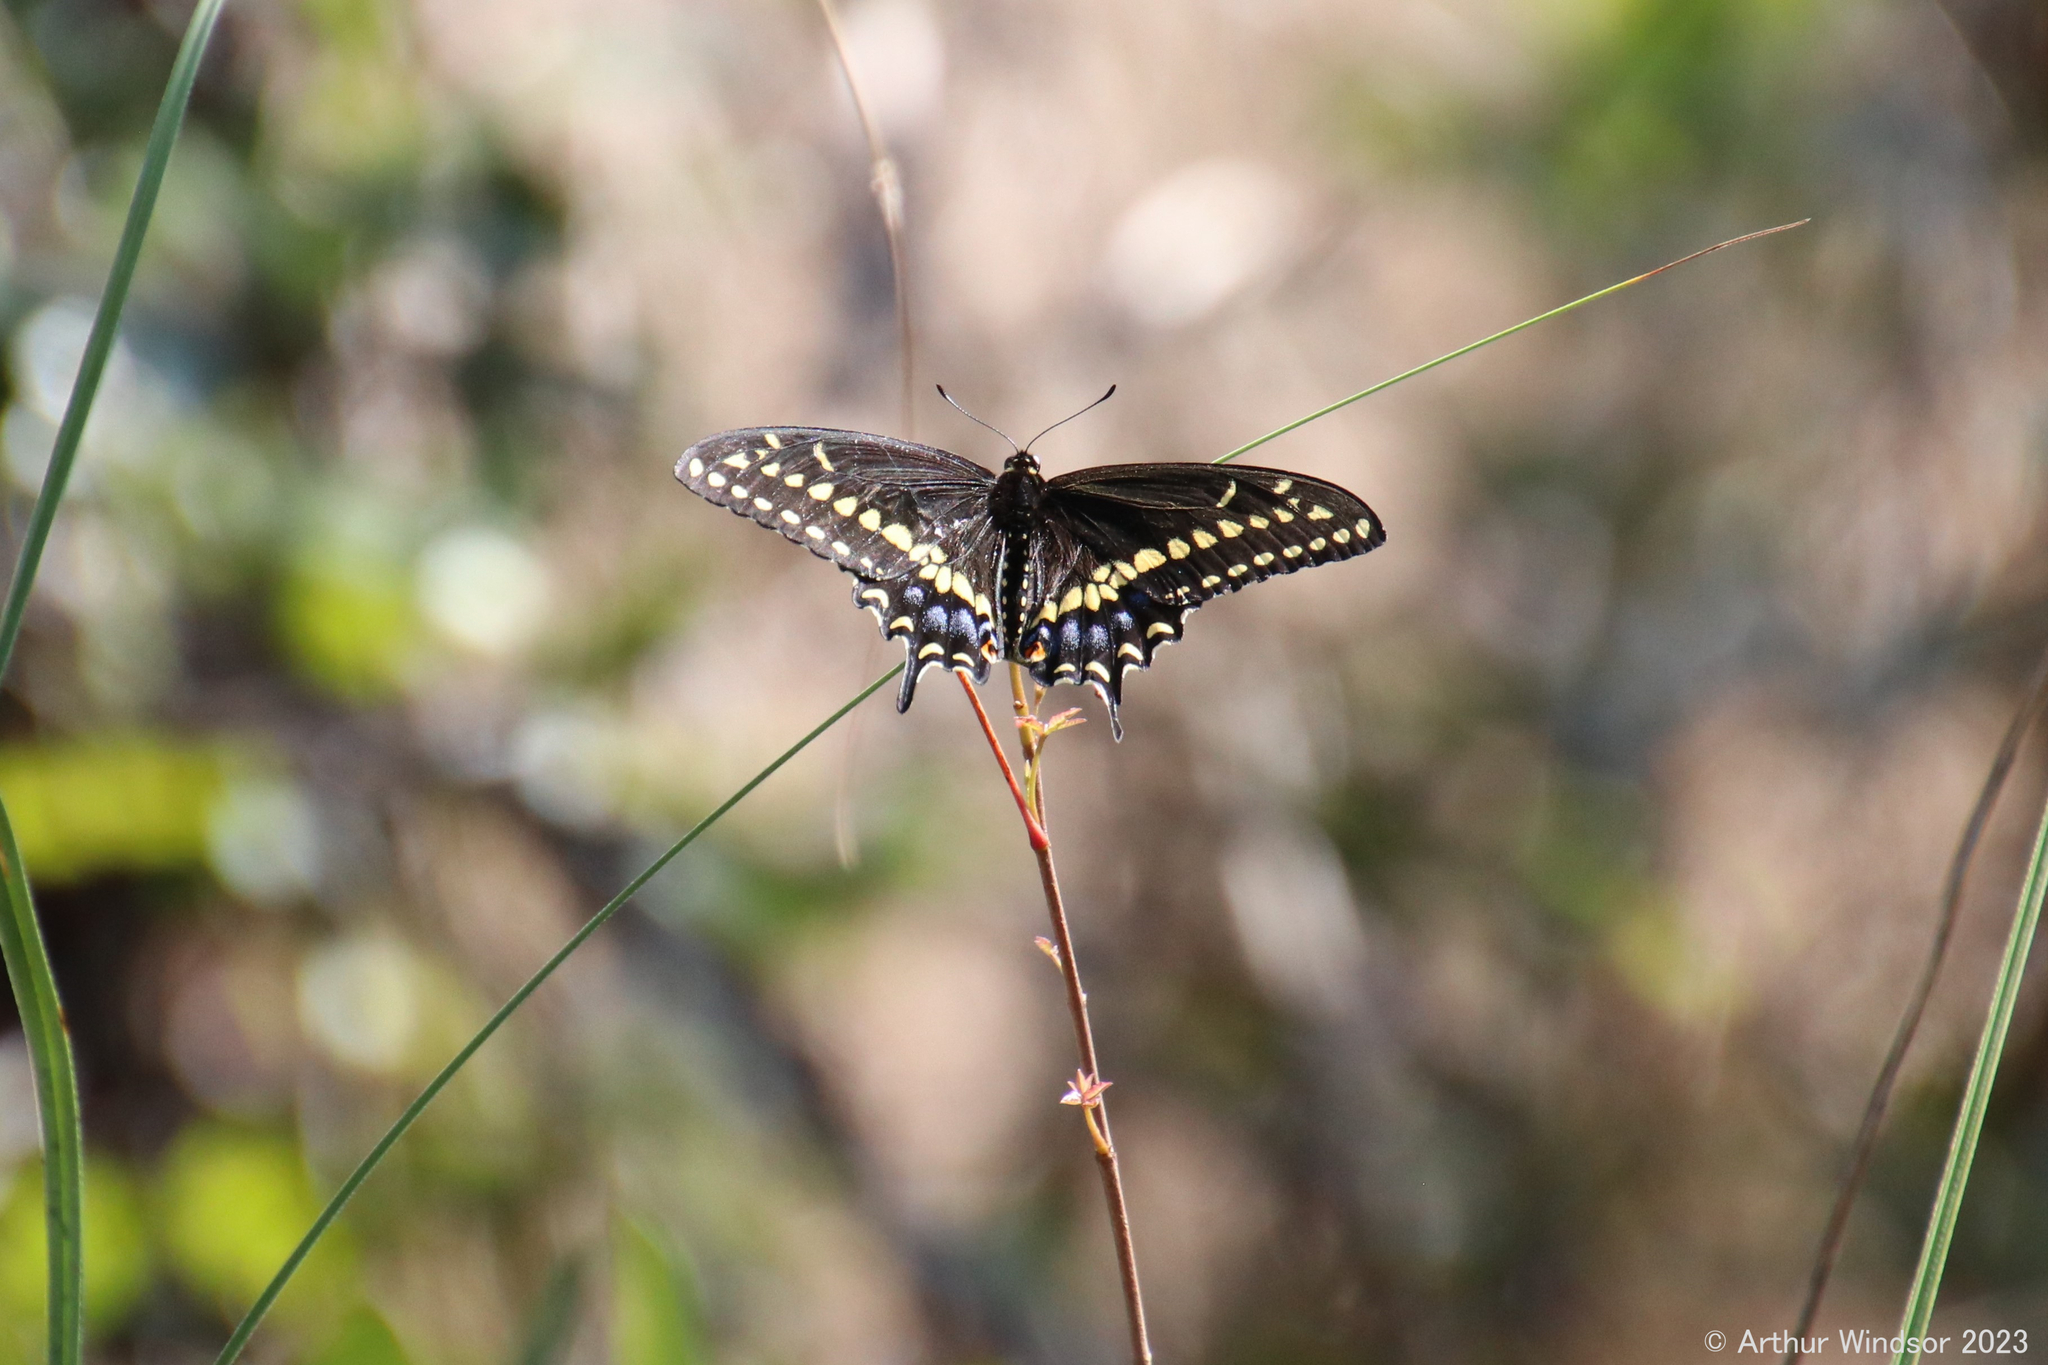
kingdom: Animalia
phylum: Arthropoda
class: Insecta
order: Lepidoptera
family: Papilionidae
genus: Papilio
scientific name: Papilio polyxenes
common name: Black swallowtail
